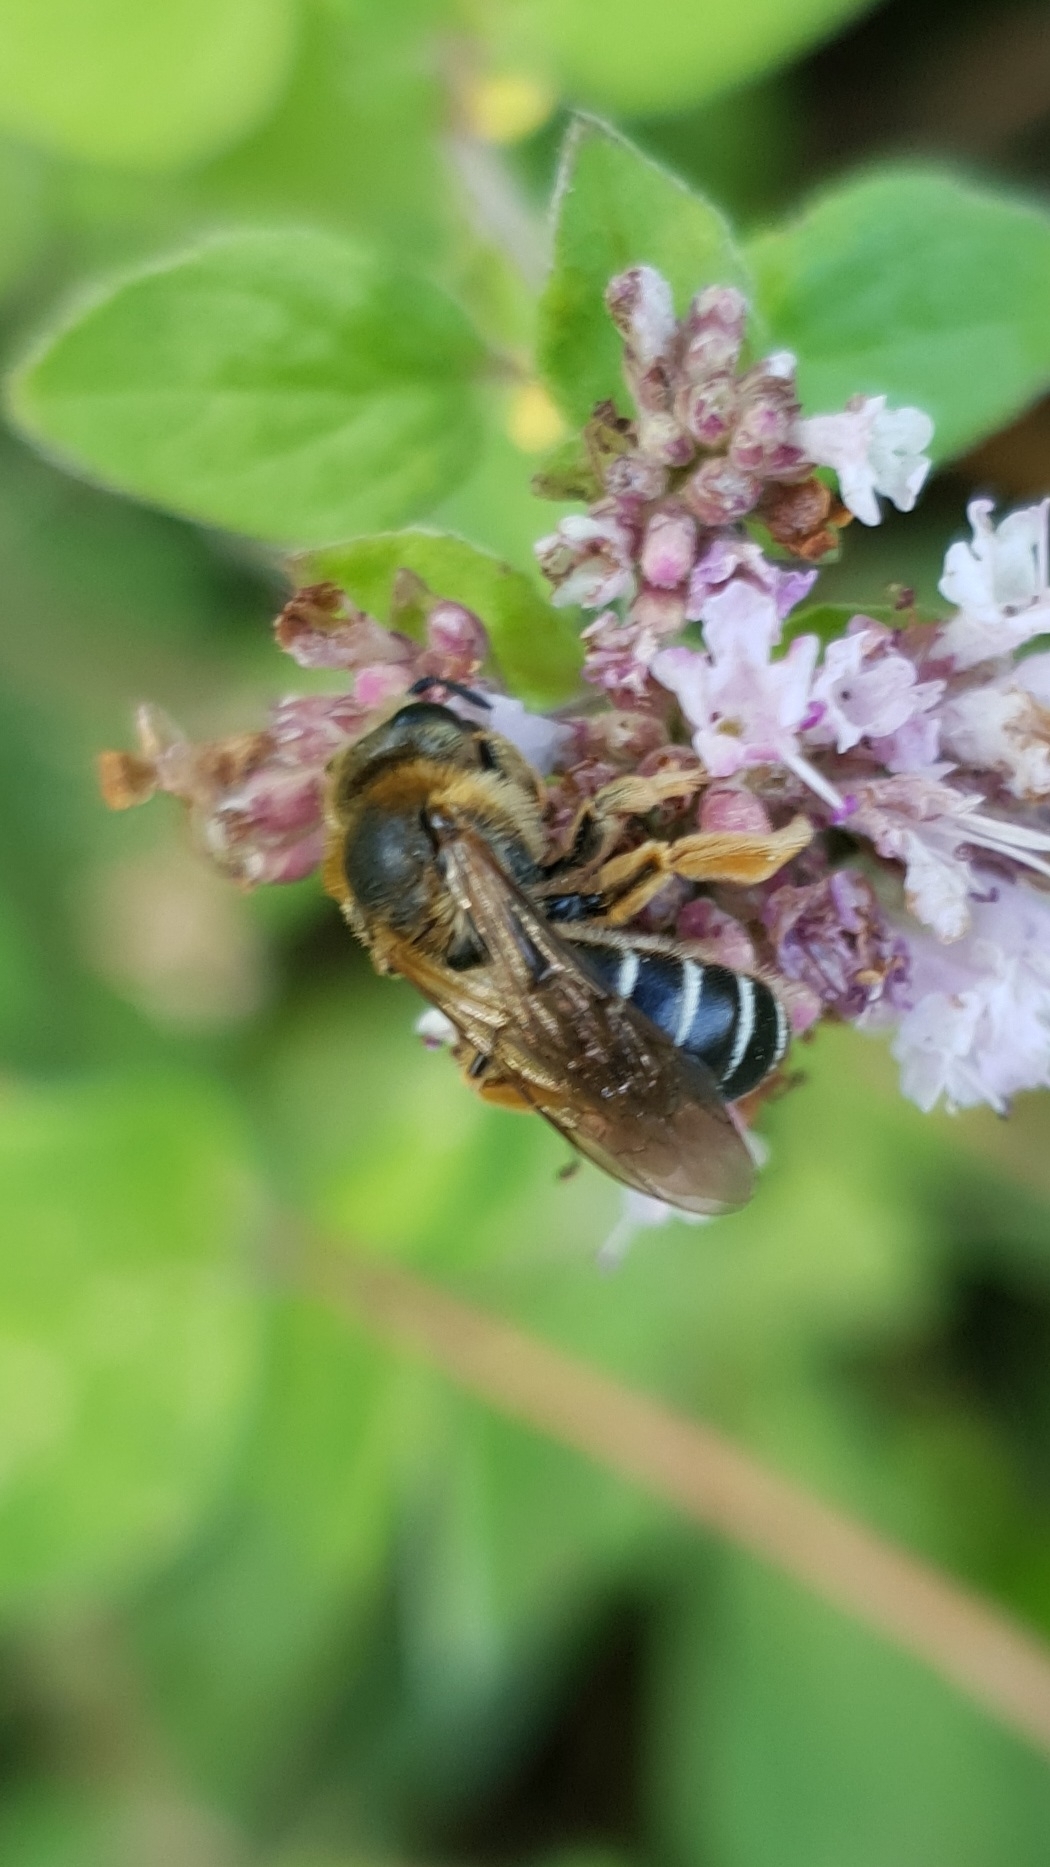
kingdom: Animalia
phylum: Arthropoda
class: Insecta
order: Hymenoptera
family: Halictidae
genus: Halictus
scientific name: Halictus rubicundus
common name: Orange-legged furrow bee
